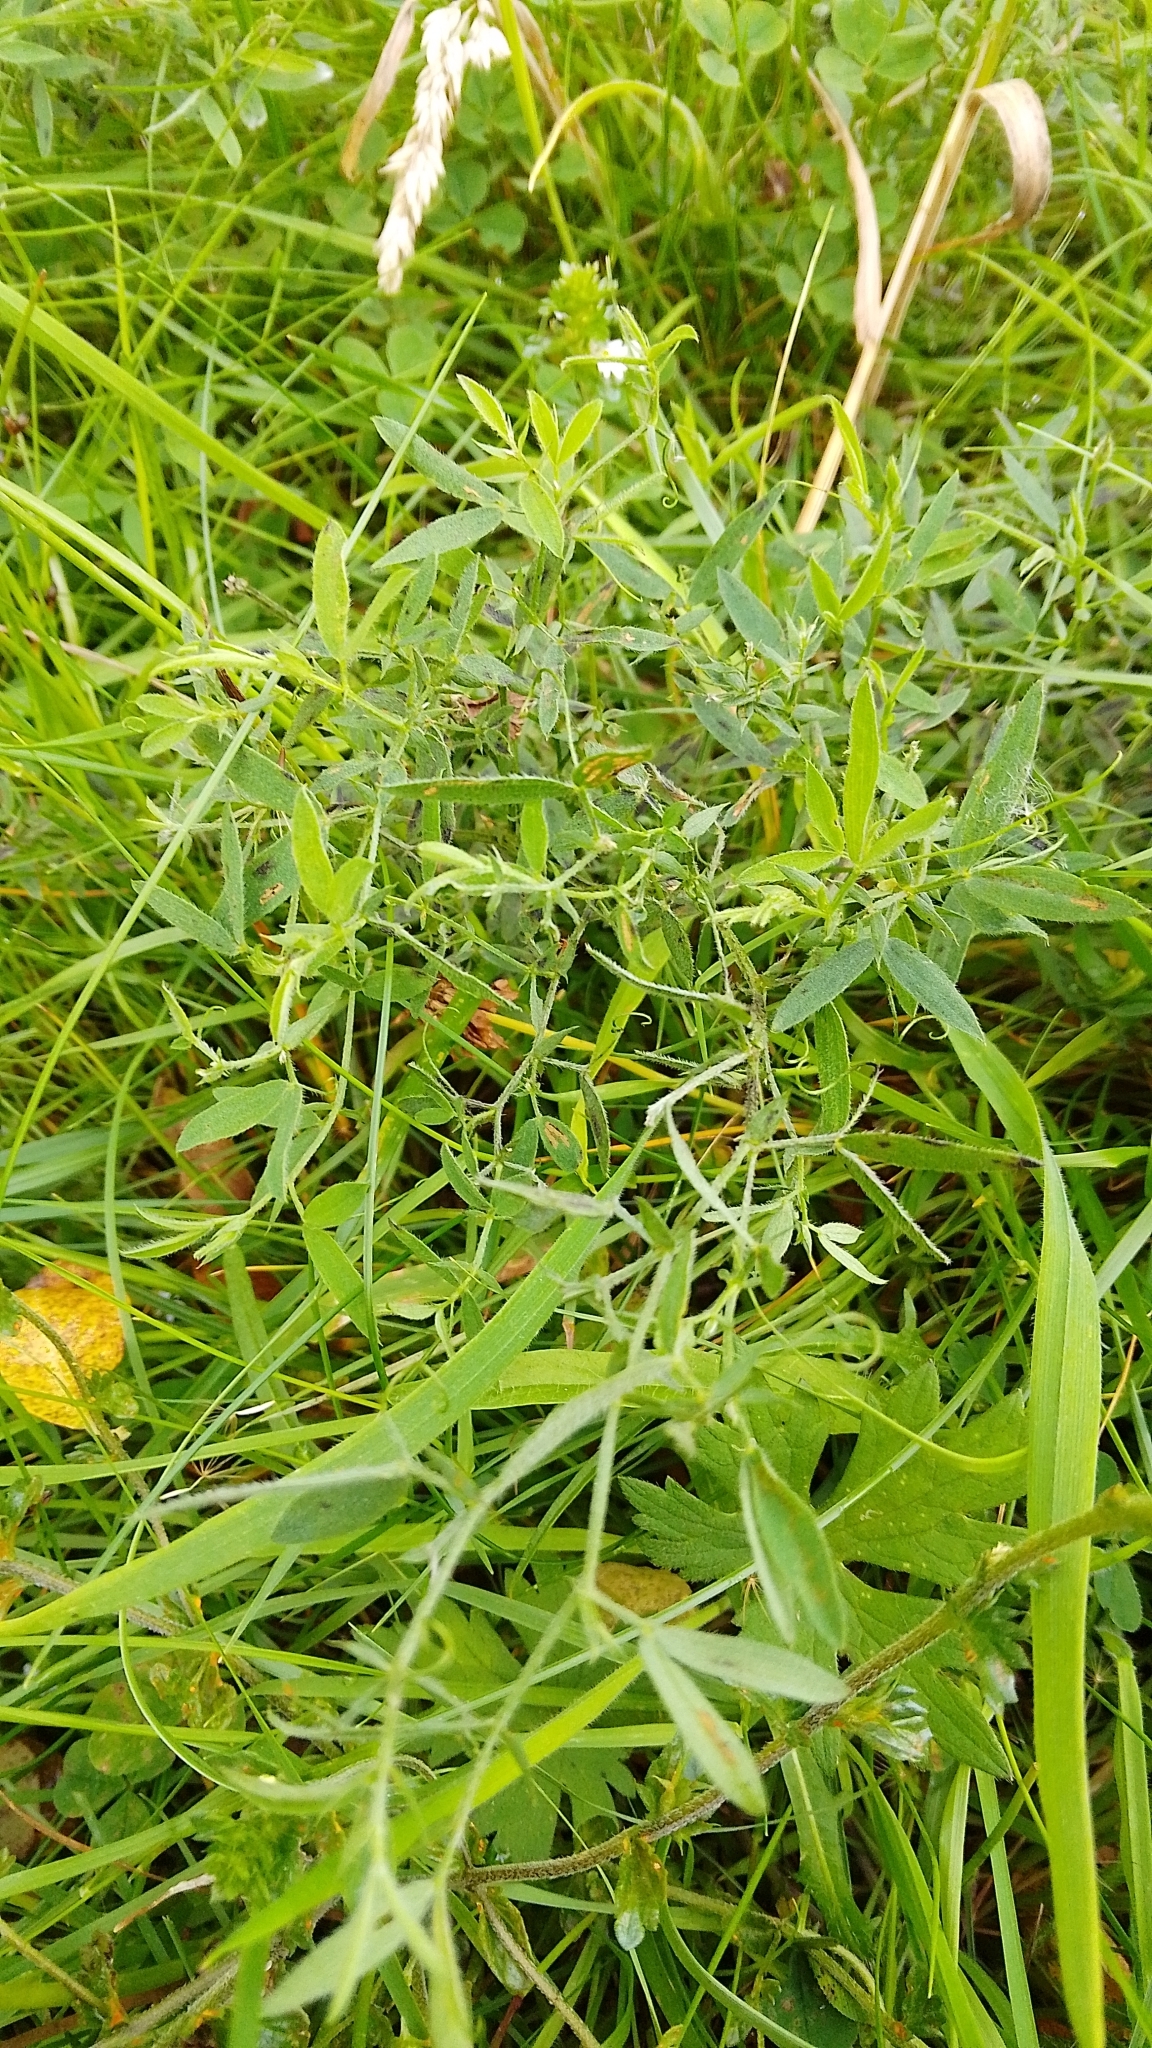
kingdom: Plantae
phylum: Tracheophyta
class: Magnoliopsida
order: Fabales
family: Fabaceae
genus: Lathyrus
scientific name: Lathyrus pratensis
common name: Meadow vetchling
